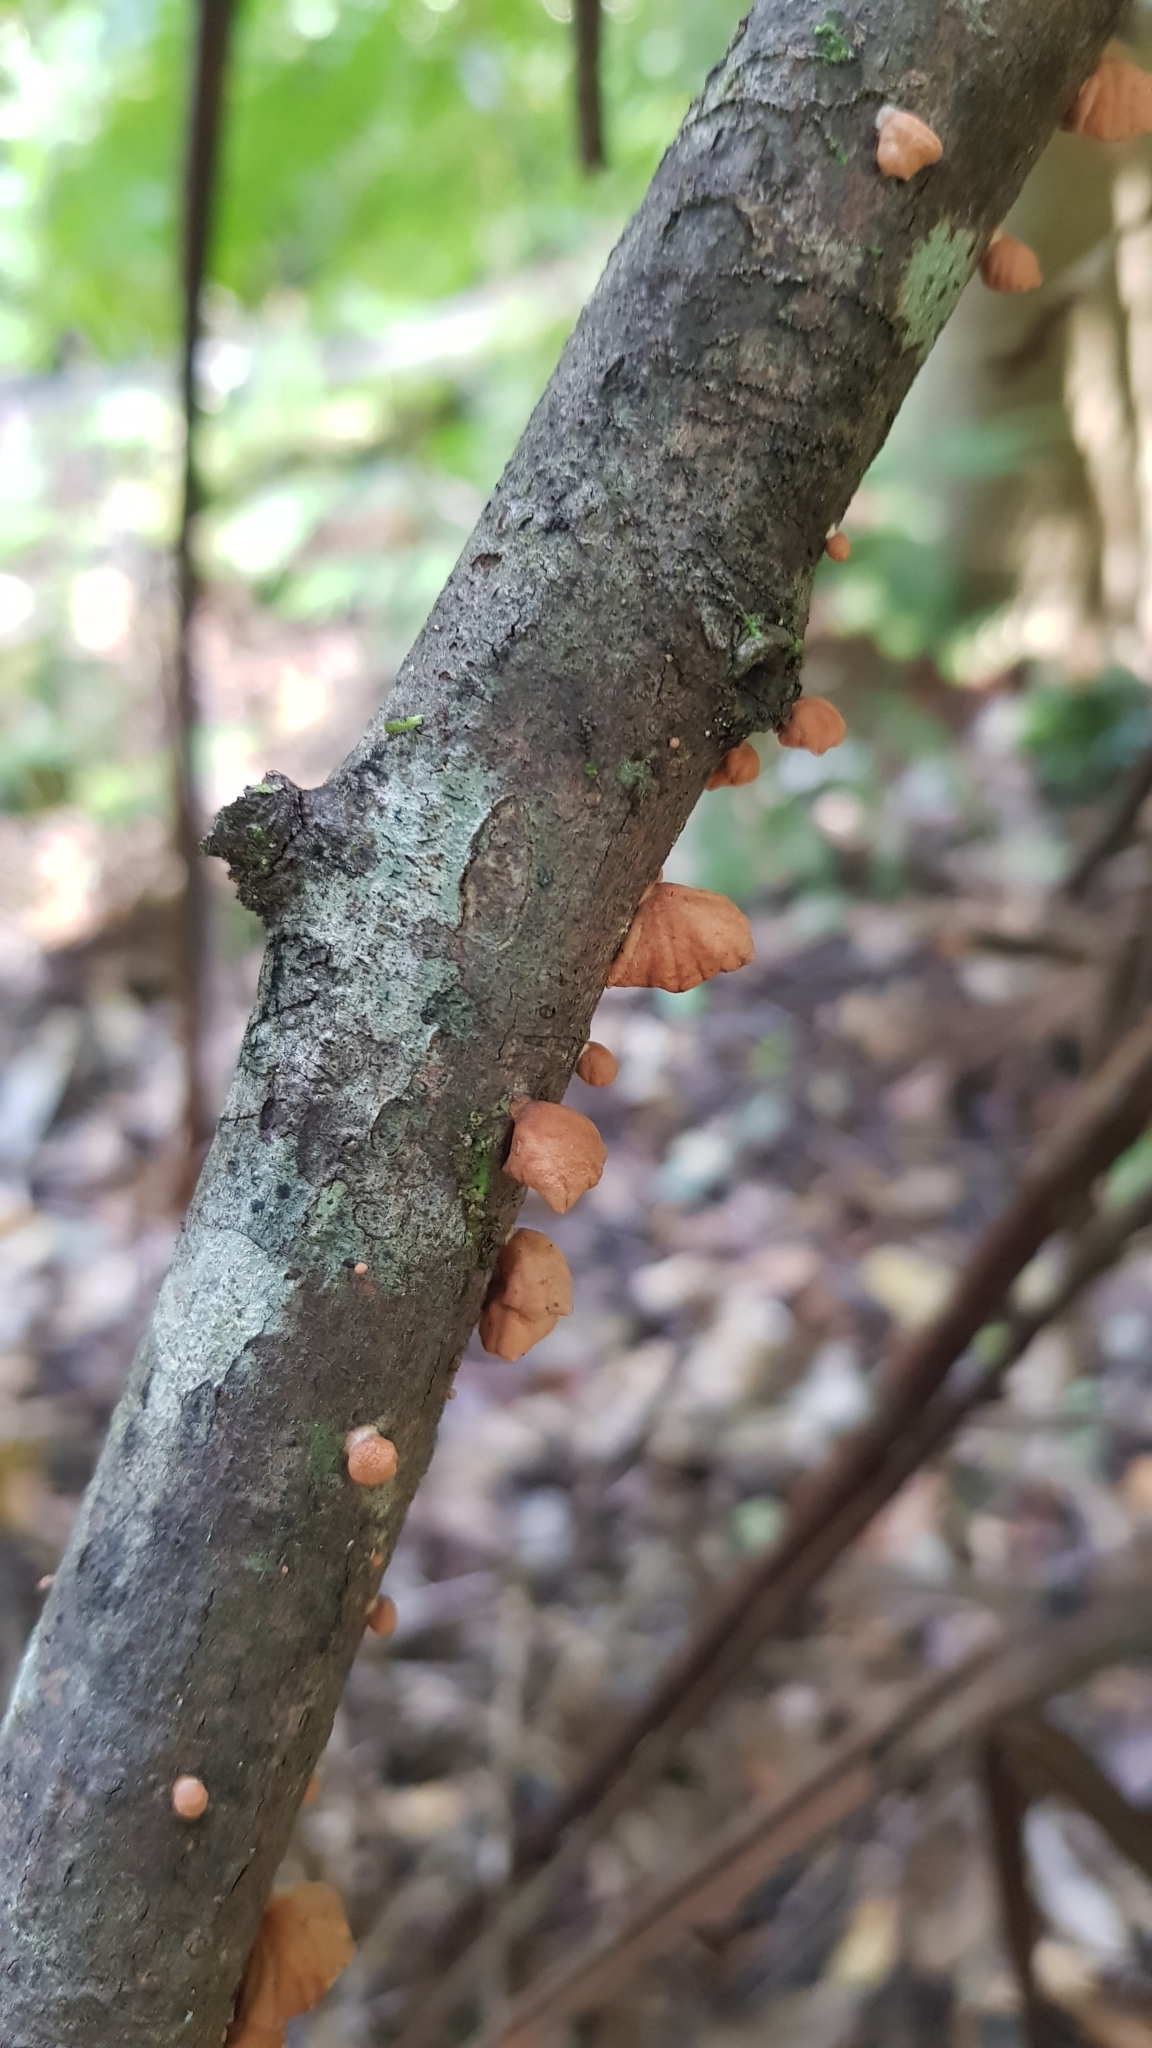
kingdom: Fungi
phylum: Basidiomycota
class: Agaricomycetes
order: Agaricales
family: Omphalotaceae
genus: Anthracophyllum
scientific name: Anthracophyllum archeri
